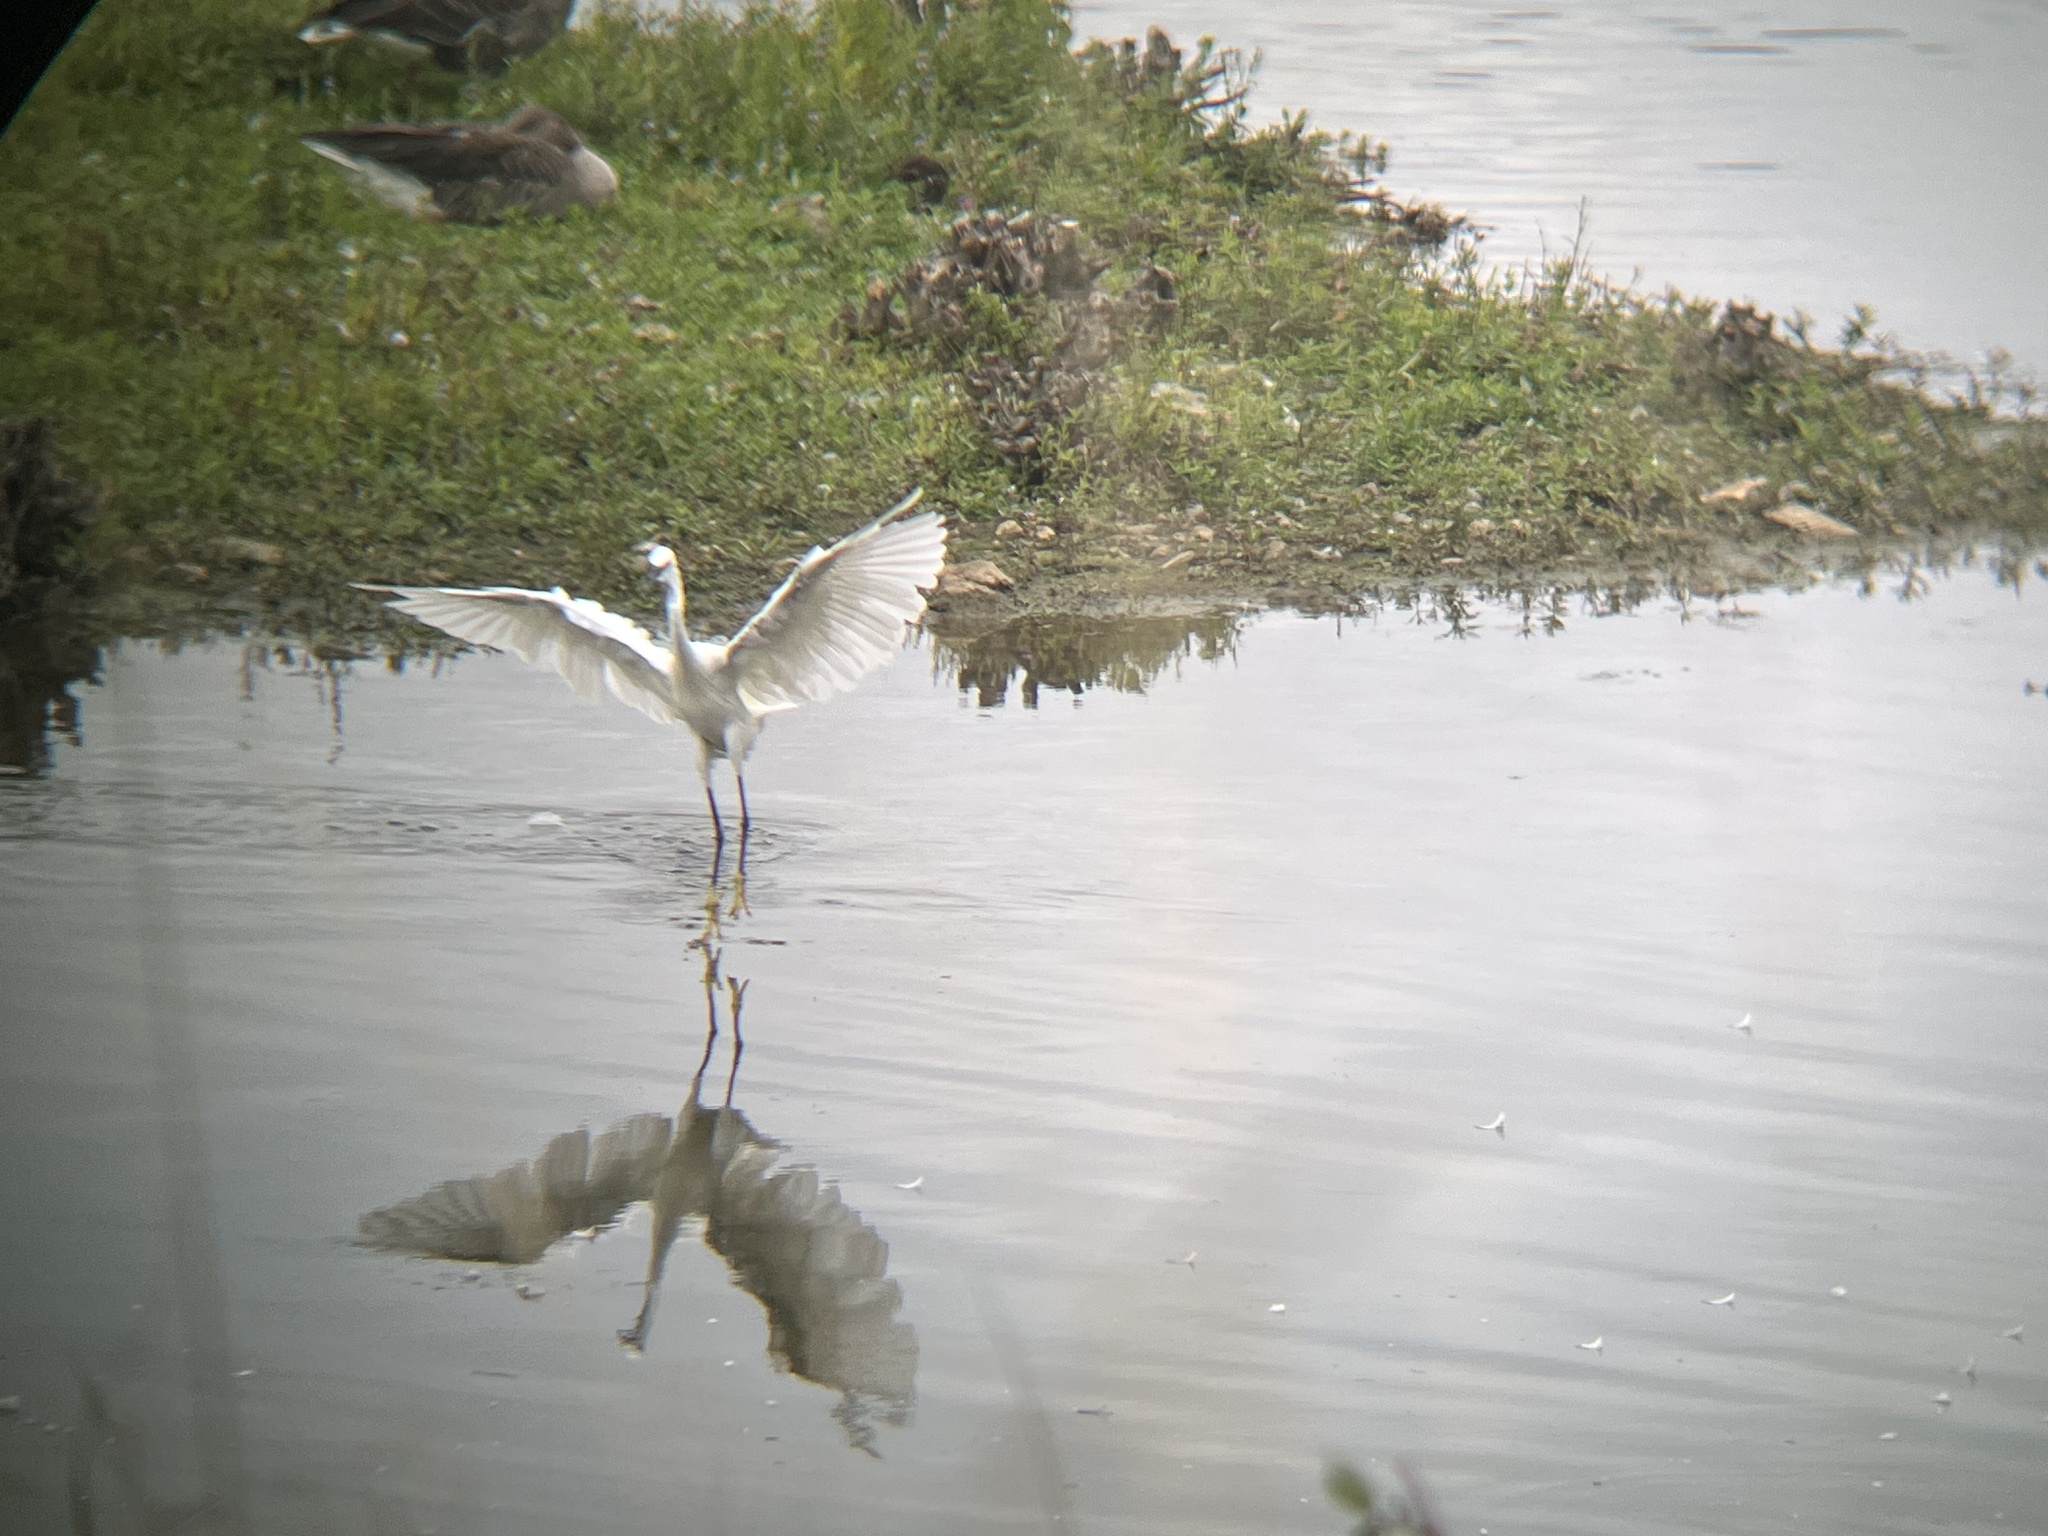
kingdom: Animalia
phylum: Chordata
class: Aves
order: Pelecaniformes
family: Ardeidae
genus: Egretta
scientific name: Egretta garzetta
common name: Little egret
